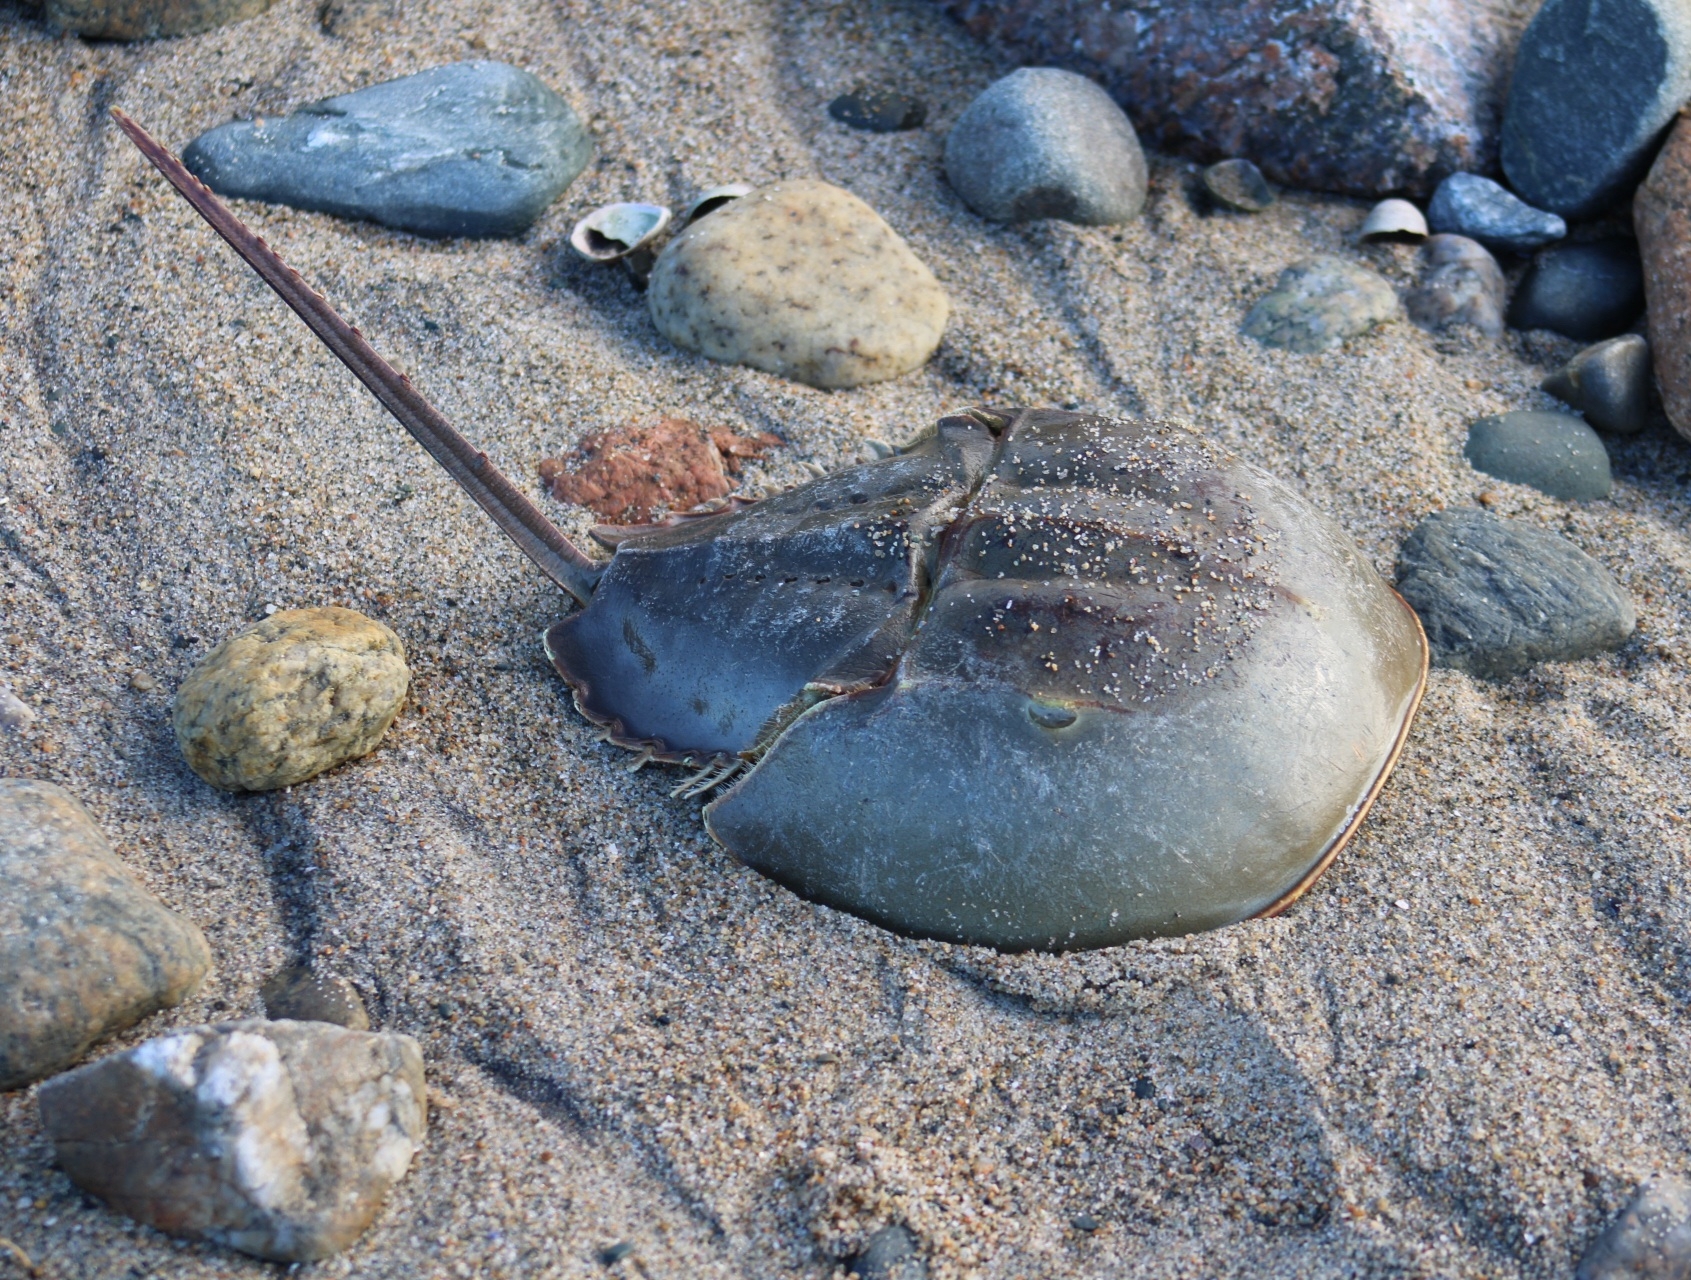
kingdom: Animalia
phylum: Arthropoda
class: Merostomata
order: Xiphosurida
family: Limulidae
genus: Limulus
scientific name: Limulus polyphemus
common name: Horseshoe crab
